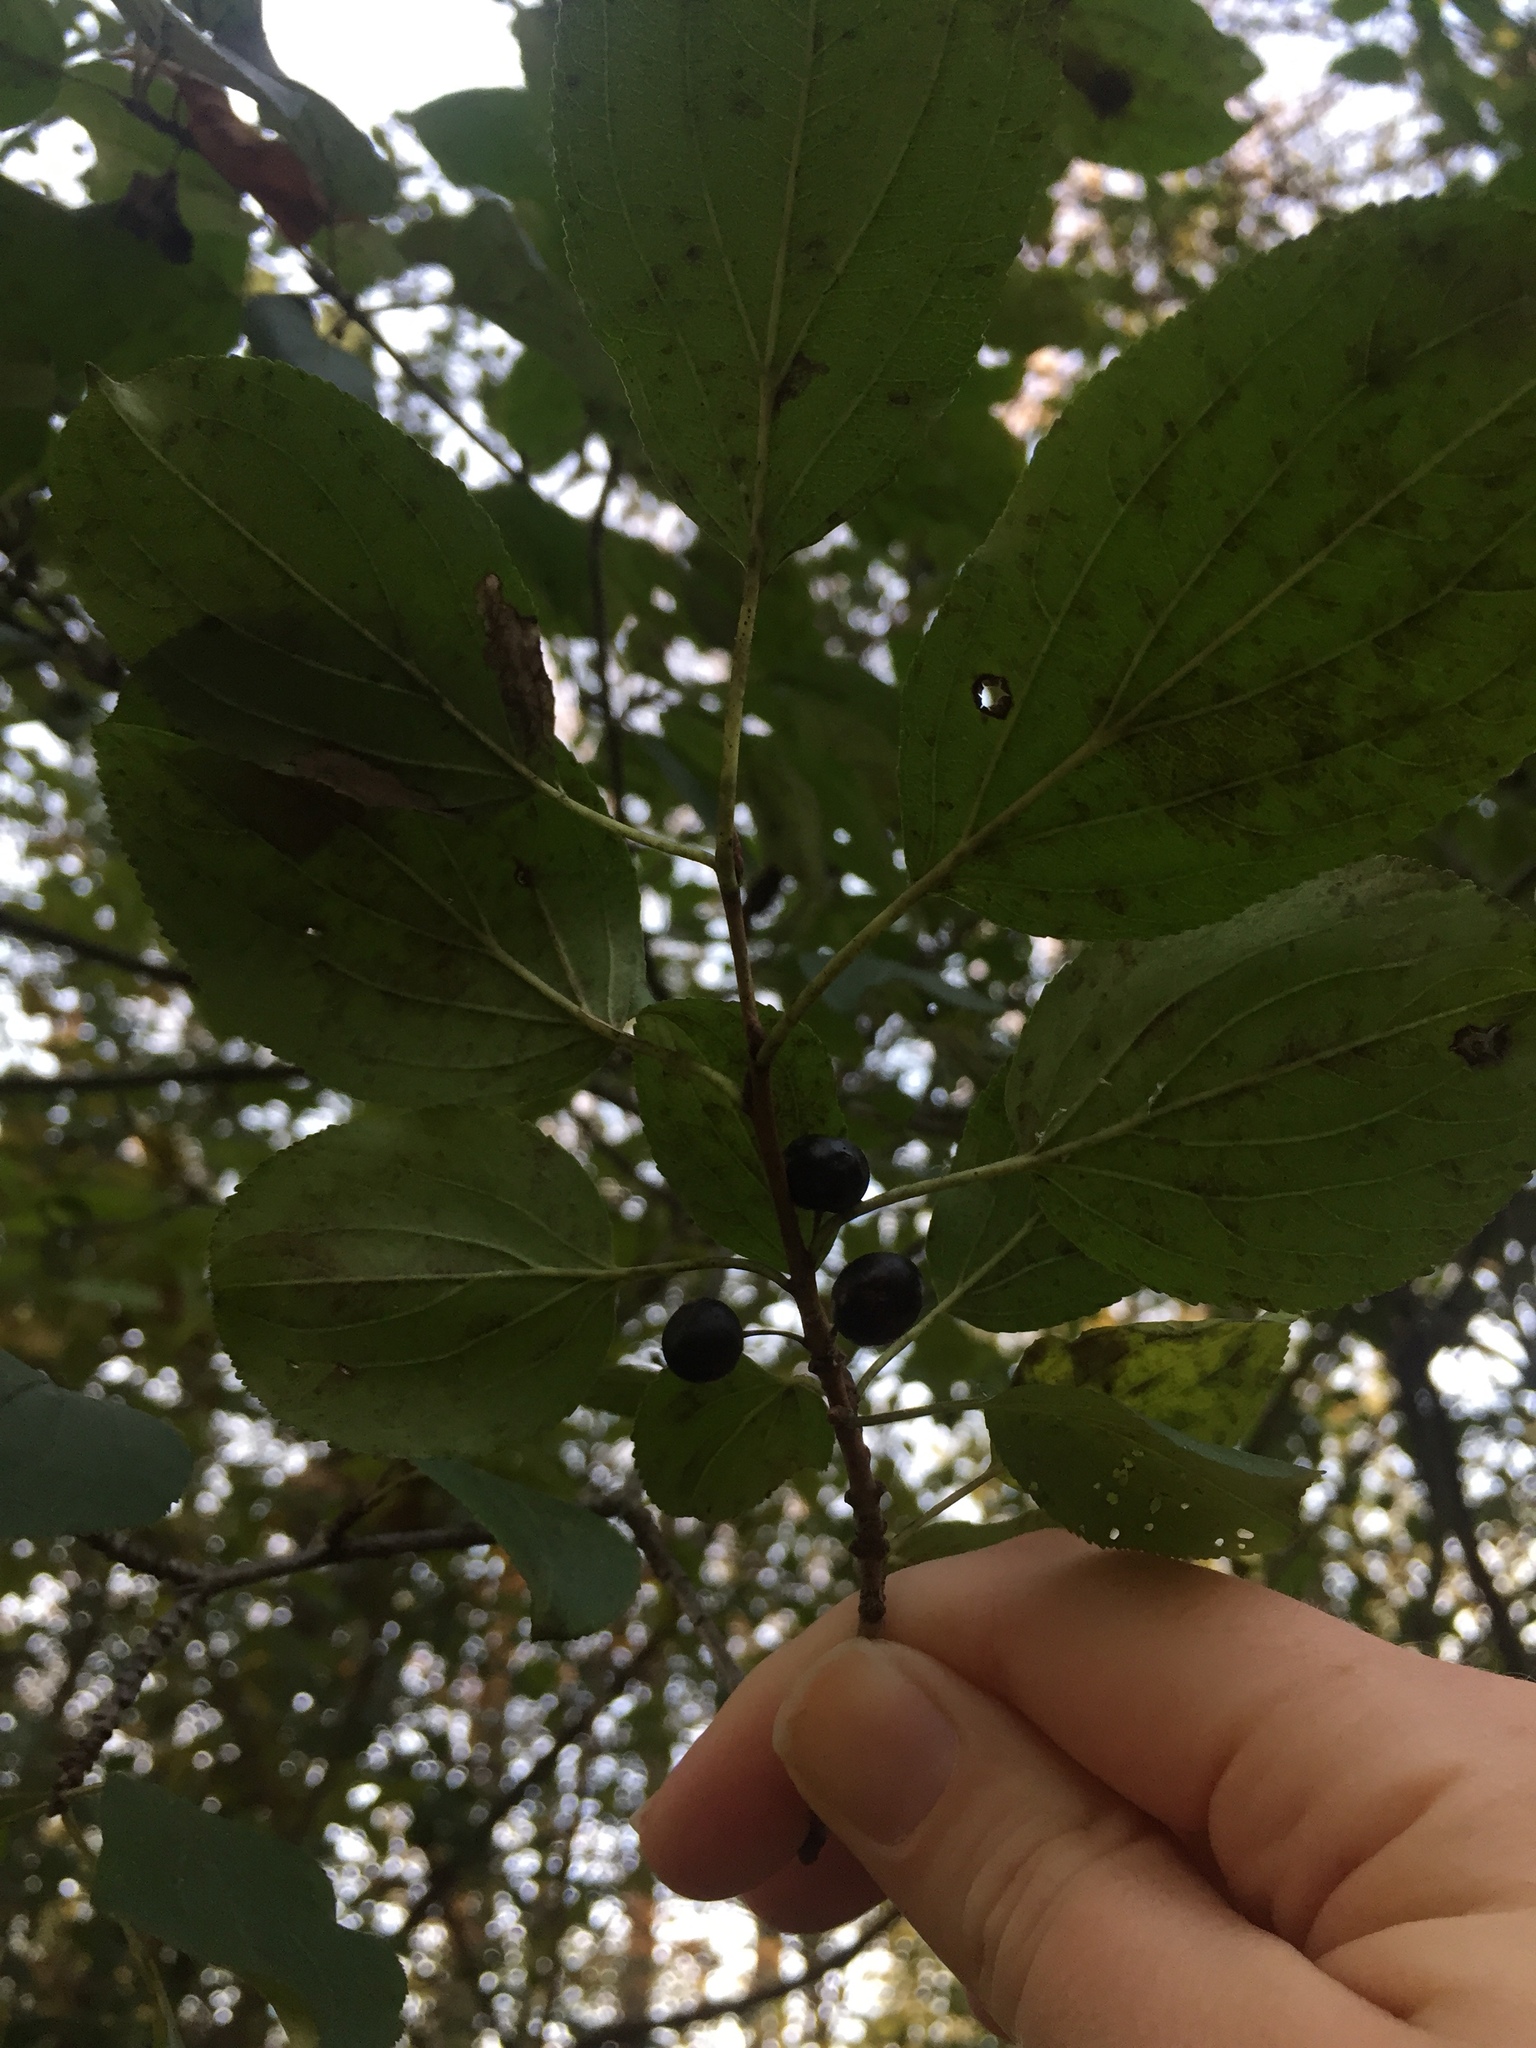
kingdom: Plantae
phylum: Tracheophyta
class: Magnoliopsida
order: Rosales
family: Rhamnaceae
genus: Rhamnus
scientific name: Rhamnus cathartica
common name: Common buckthorn
